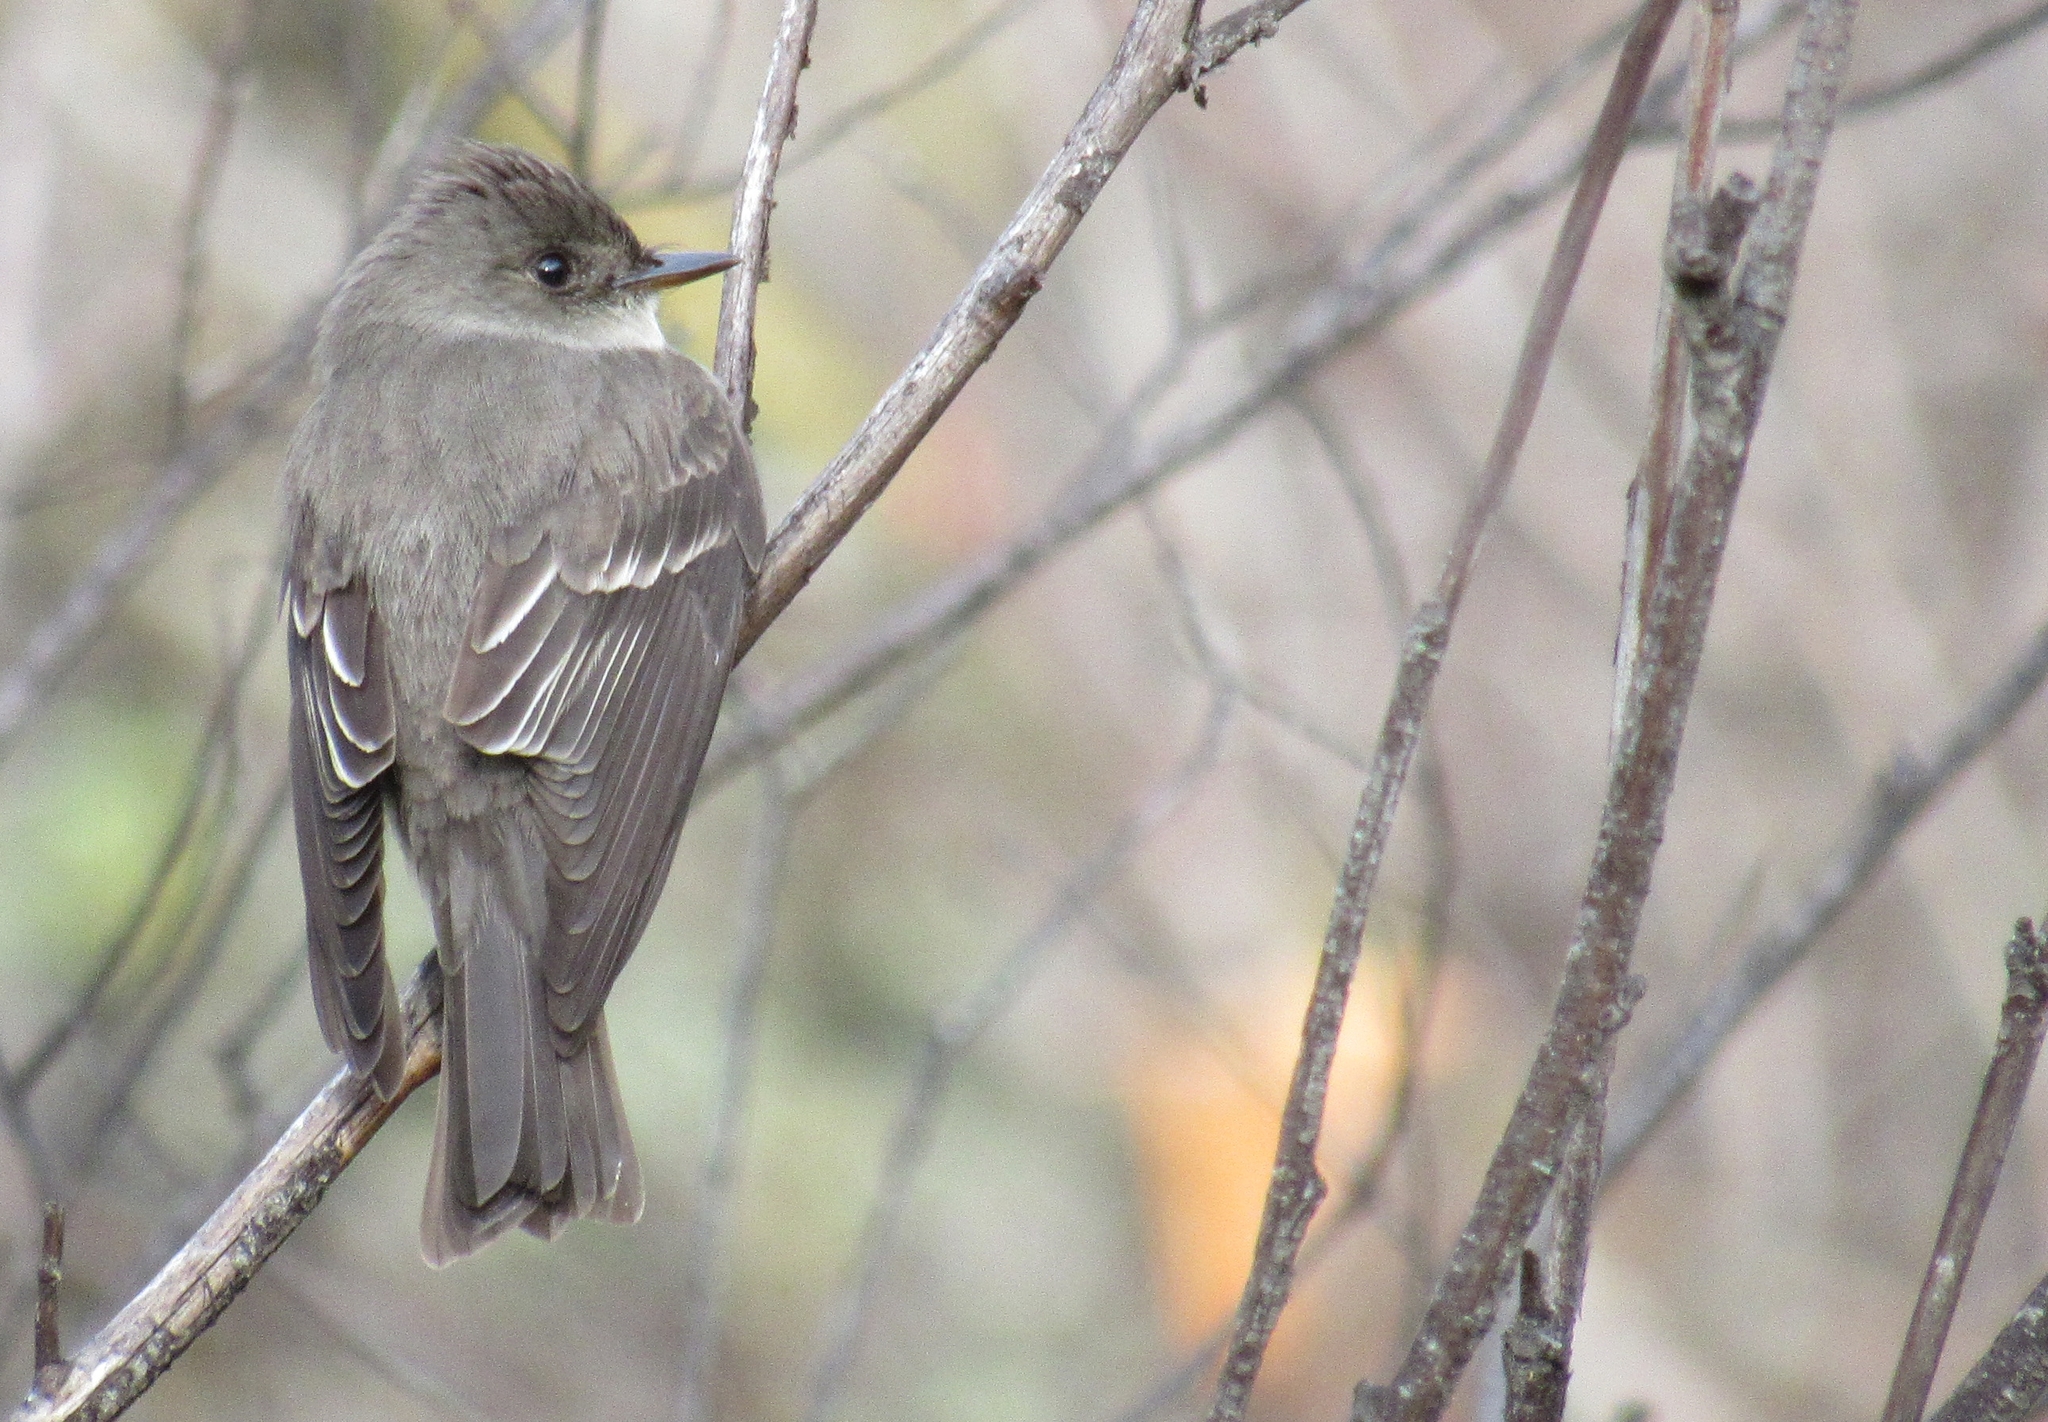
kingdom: Animalia
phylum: Chordata
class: Aves
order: Passeriformes
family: Tyrannidae
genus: Contopus
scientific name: Contopus sordidulus
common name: Western wood-pewee
